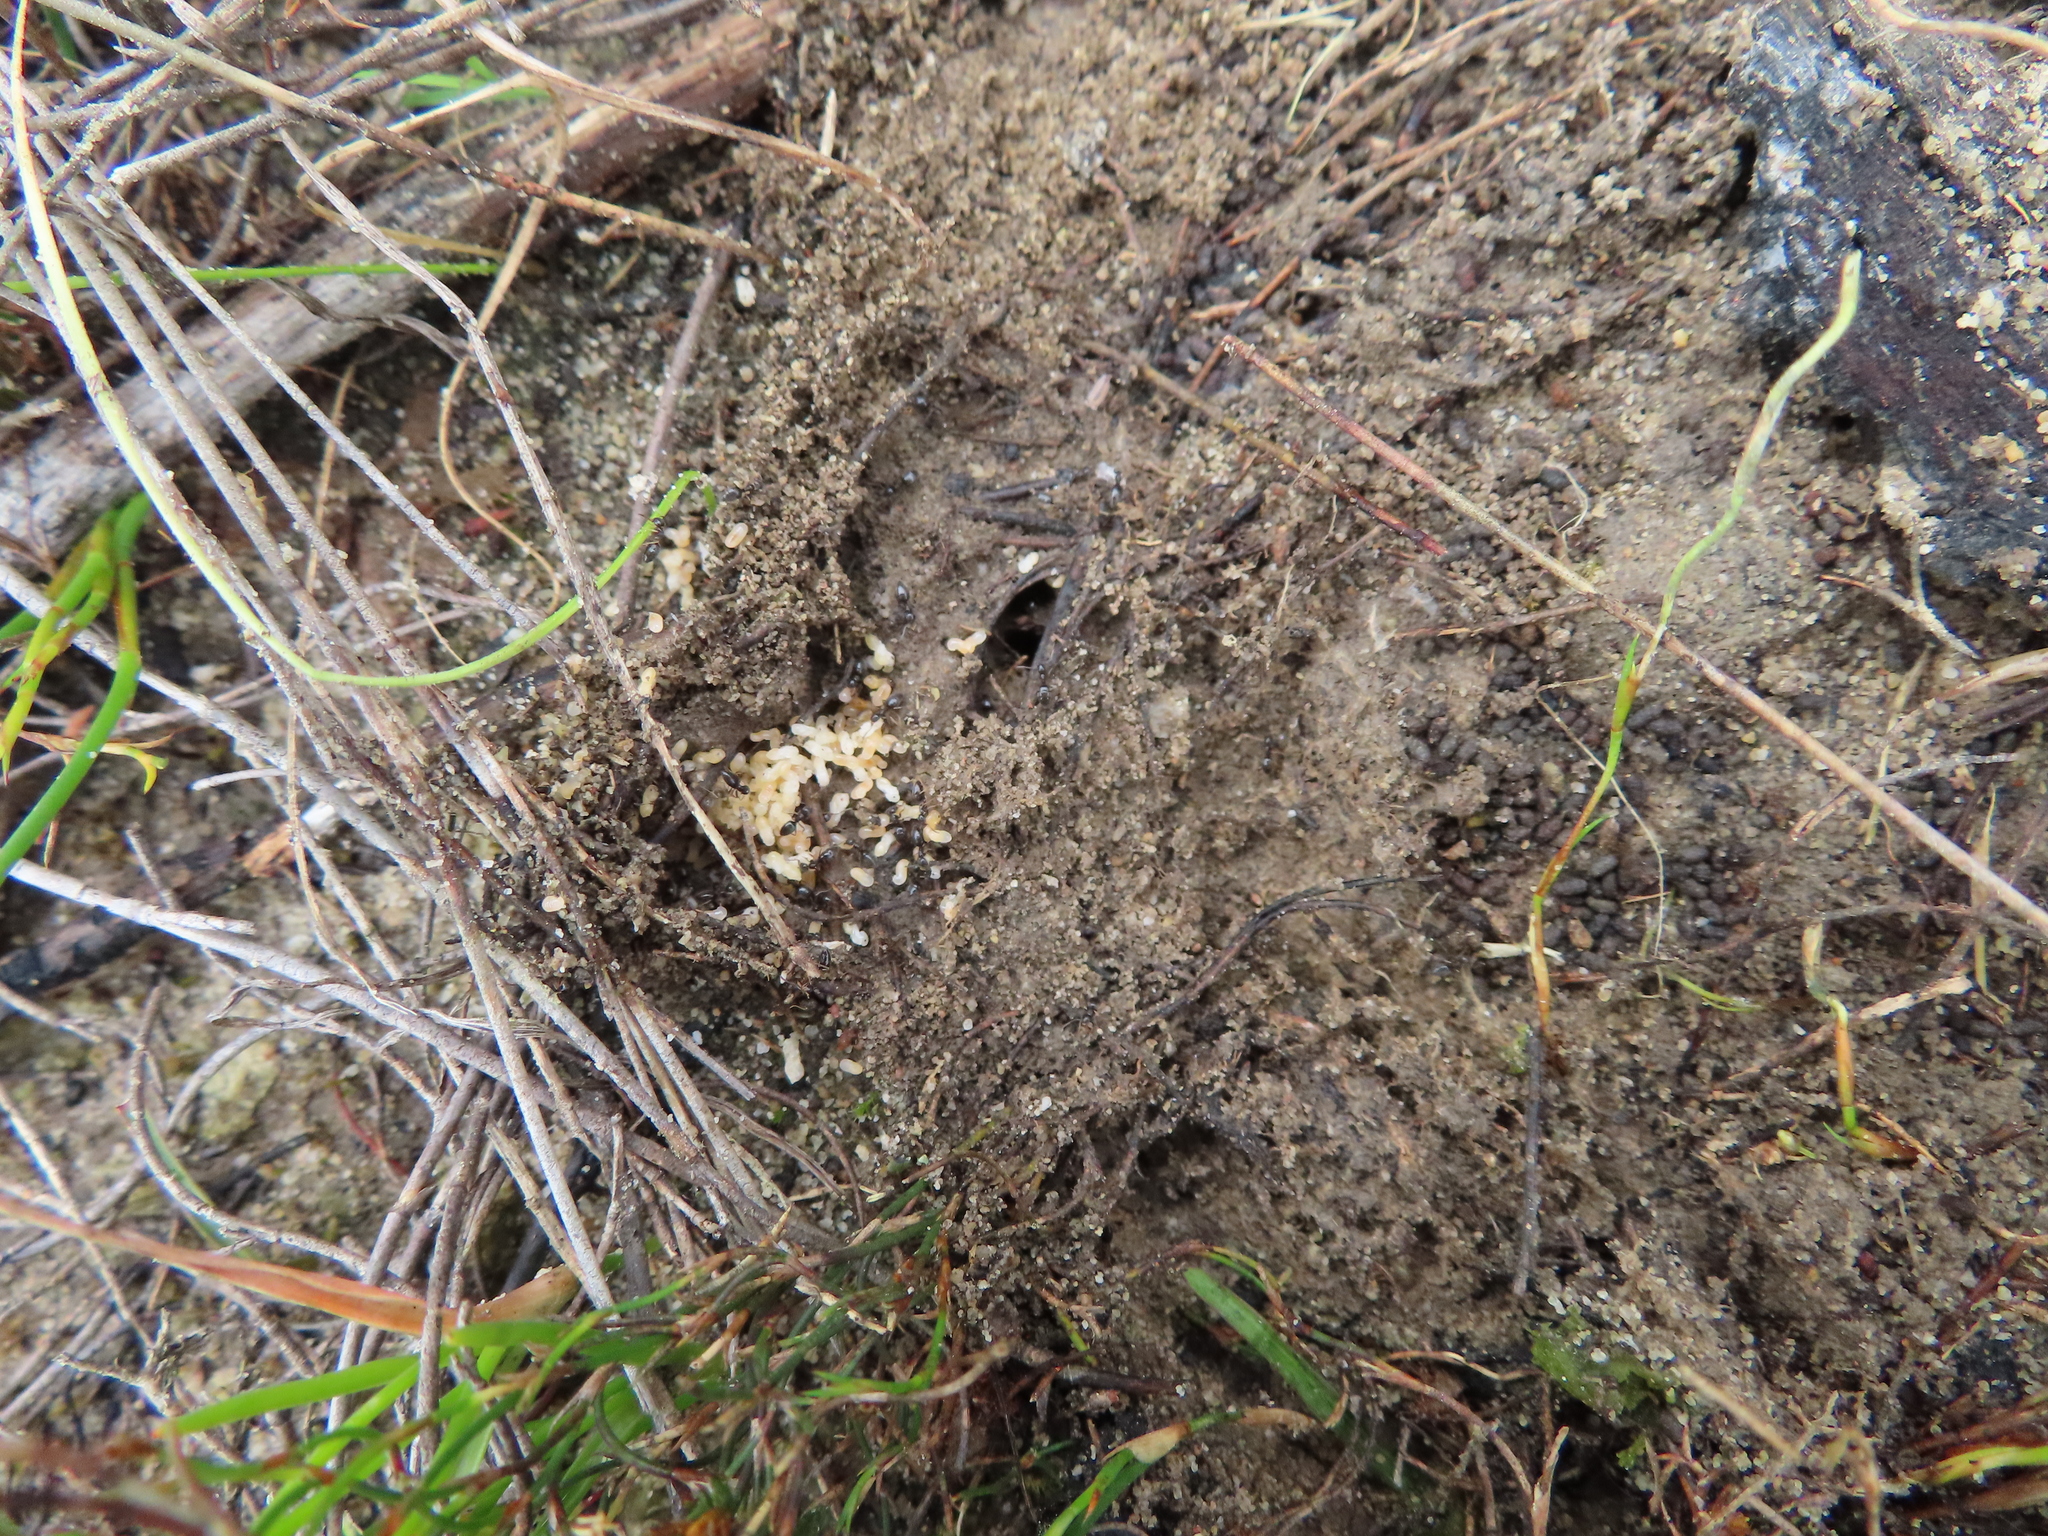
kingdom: Animalia
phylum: Arthropoda
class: Insecta
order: Hymenoptera
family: Formicidae
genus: Tapinoma
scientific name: Tapinoma pallipes
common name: Ant
